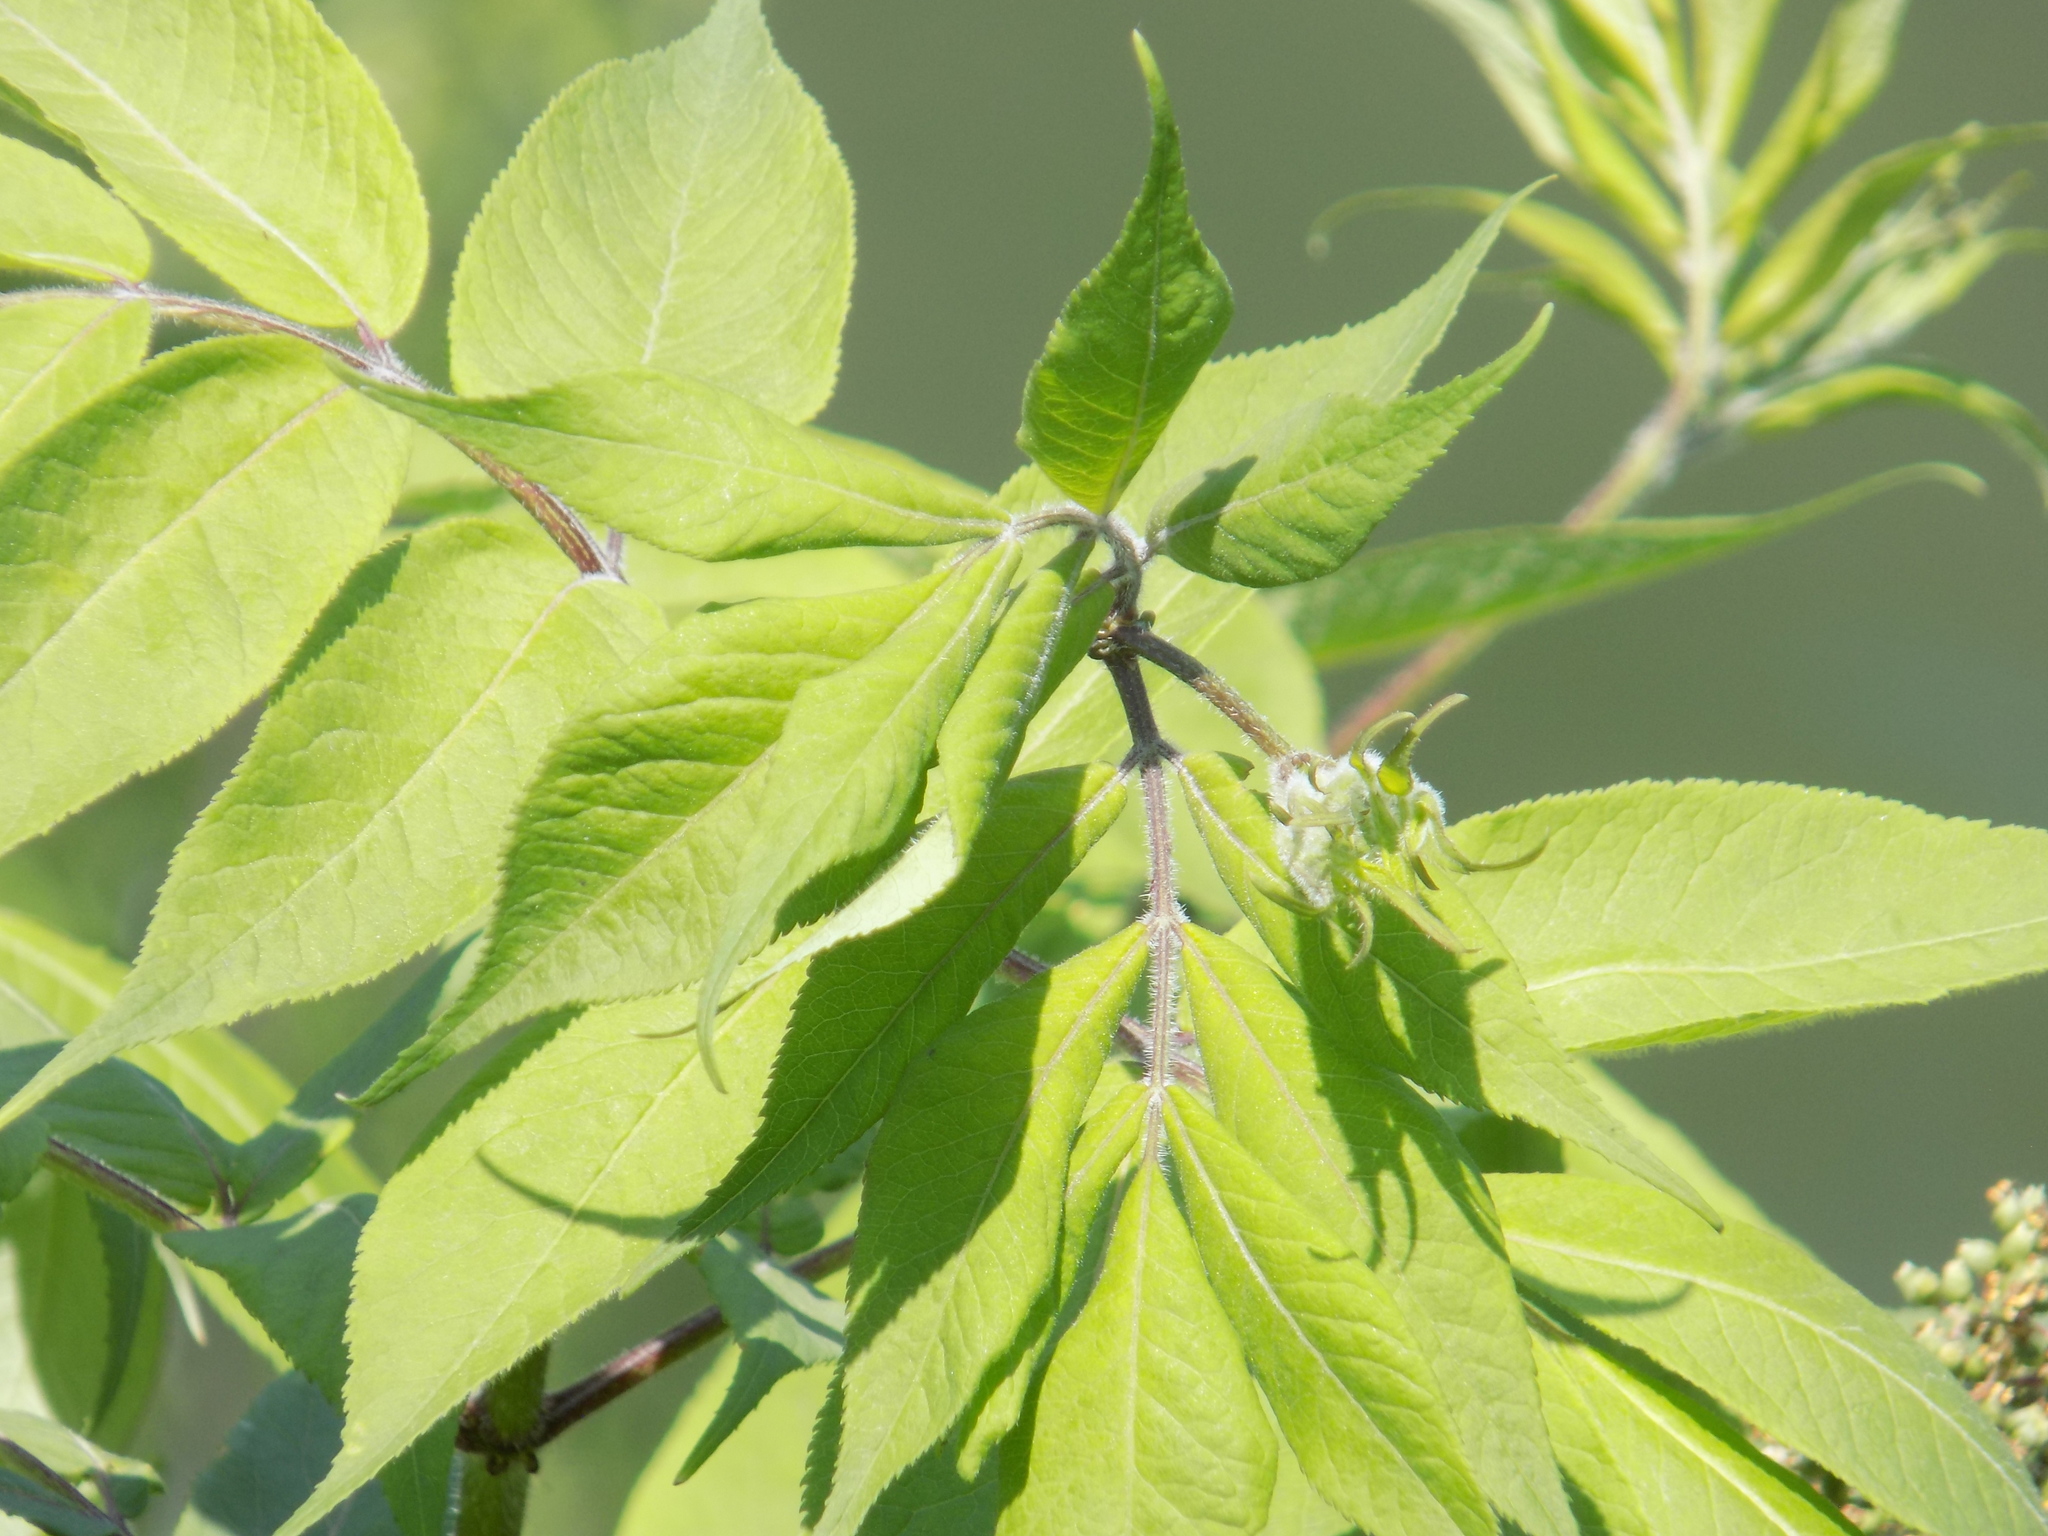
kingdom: Plantae
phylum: Tracheophyta
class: Magnoliopsida
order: Dipsacales
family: Viburnaceae
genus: Sambucus
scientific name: Sambucus sibirica
